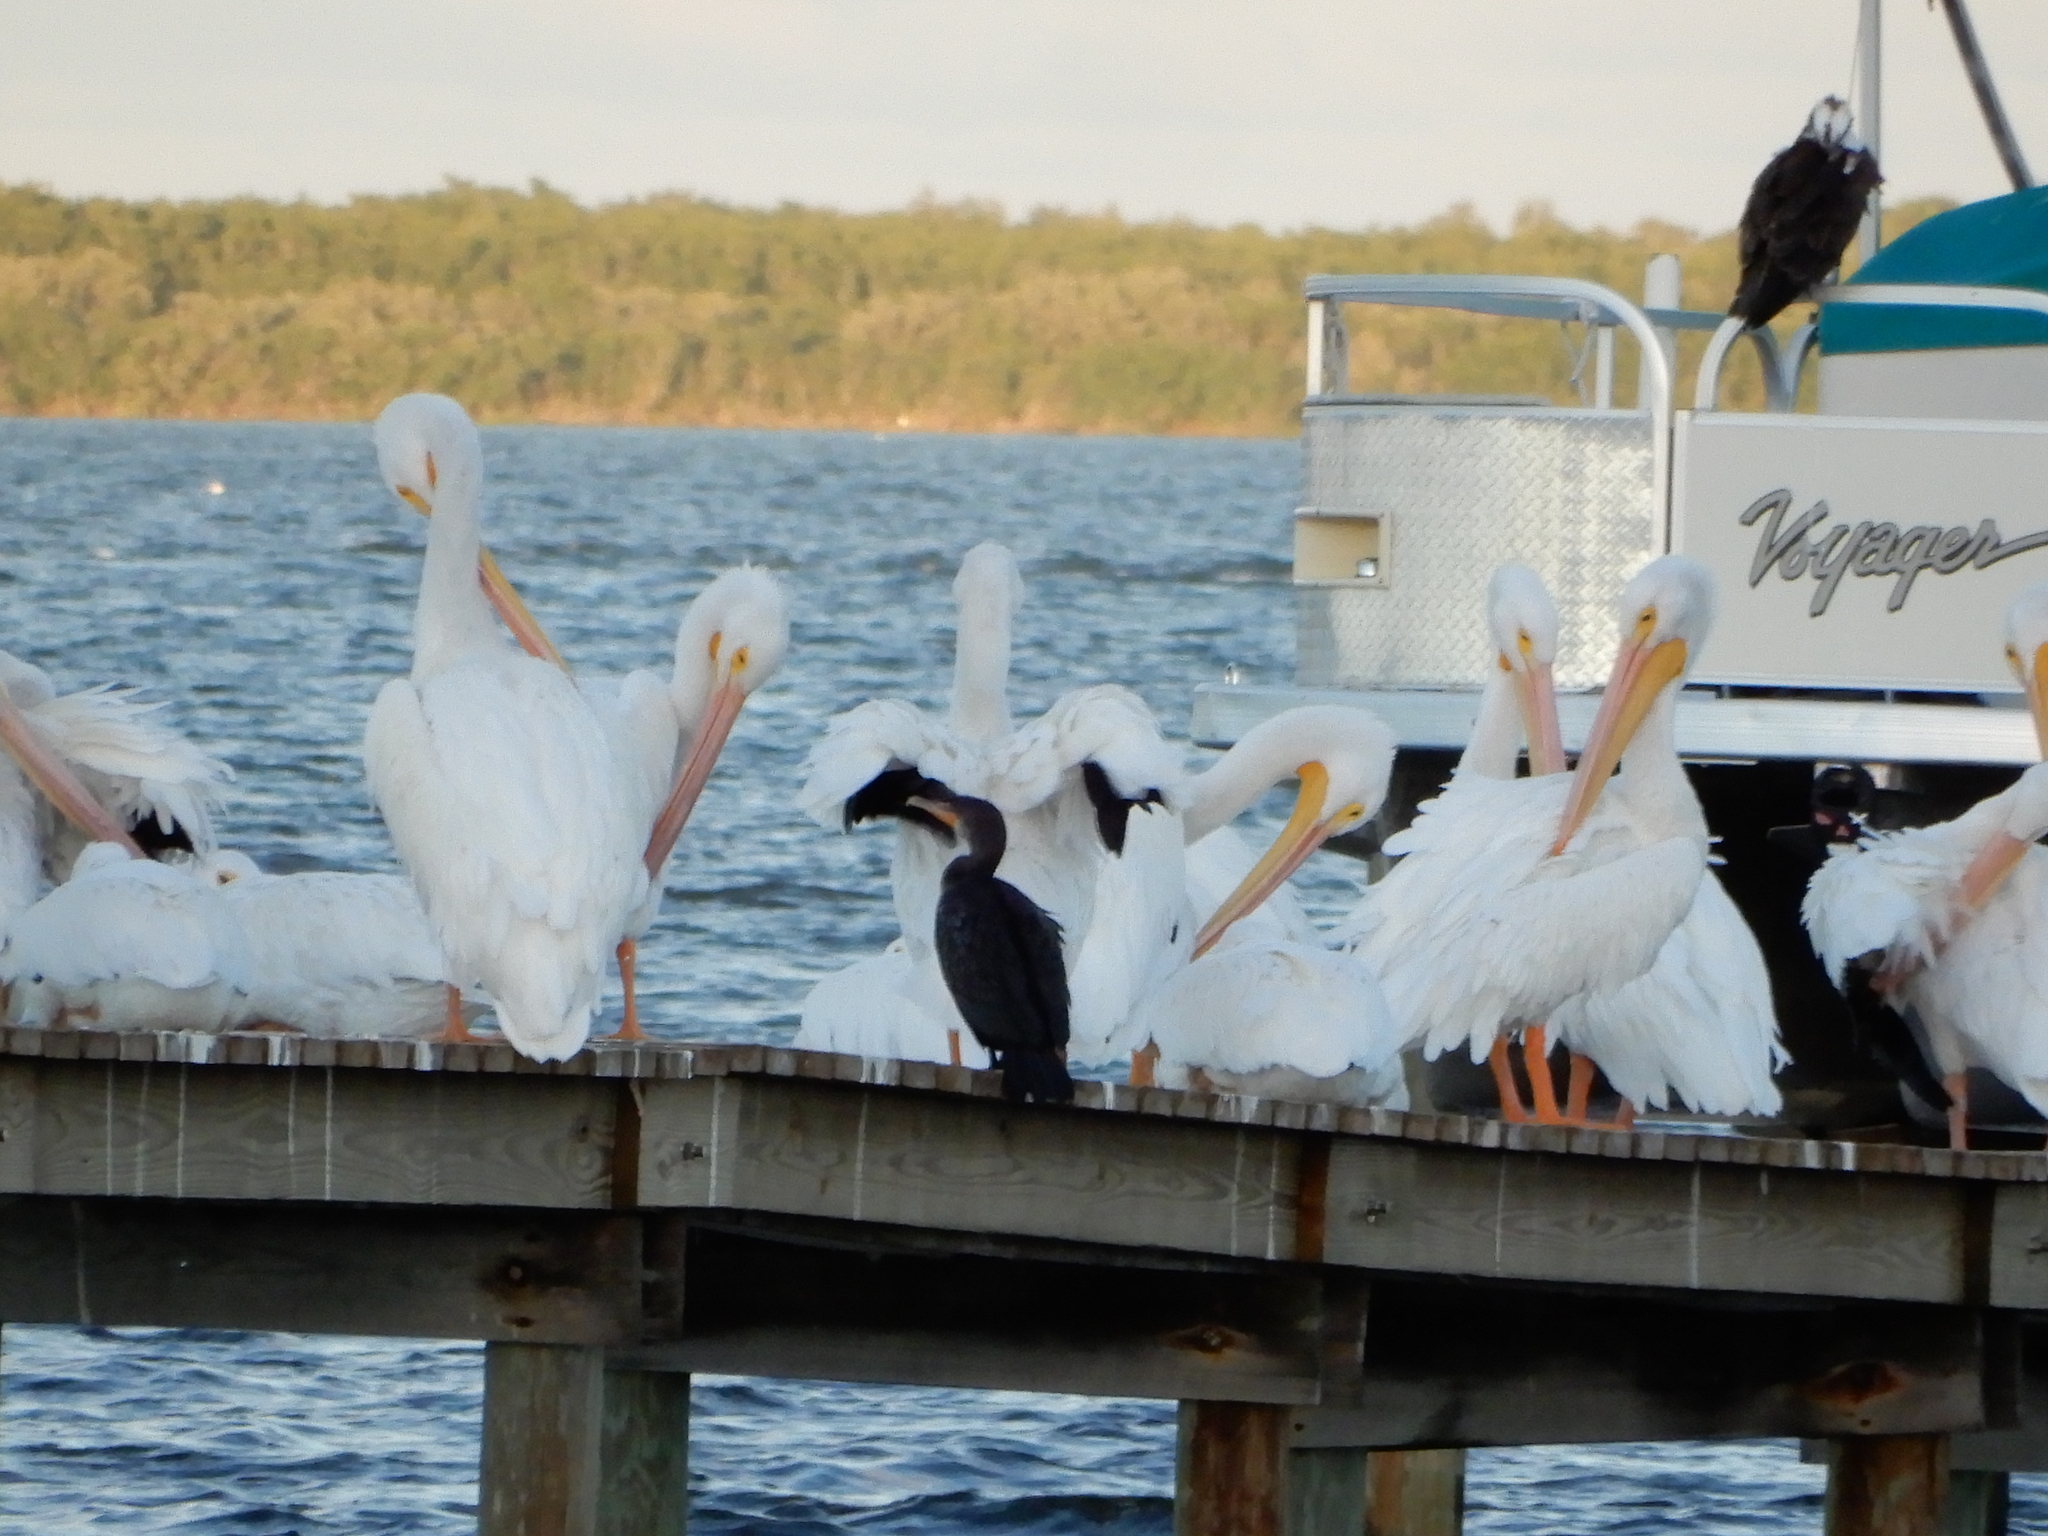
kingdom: Animalia
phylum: Chordata
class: Aves
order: Suliformes
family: Phalacrocoracidae
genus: Phalacrocorax
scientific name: Phalacrocorax auritus
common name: Double-crested cormorant
